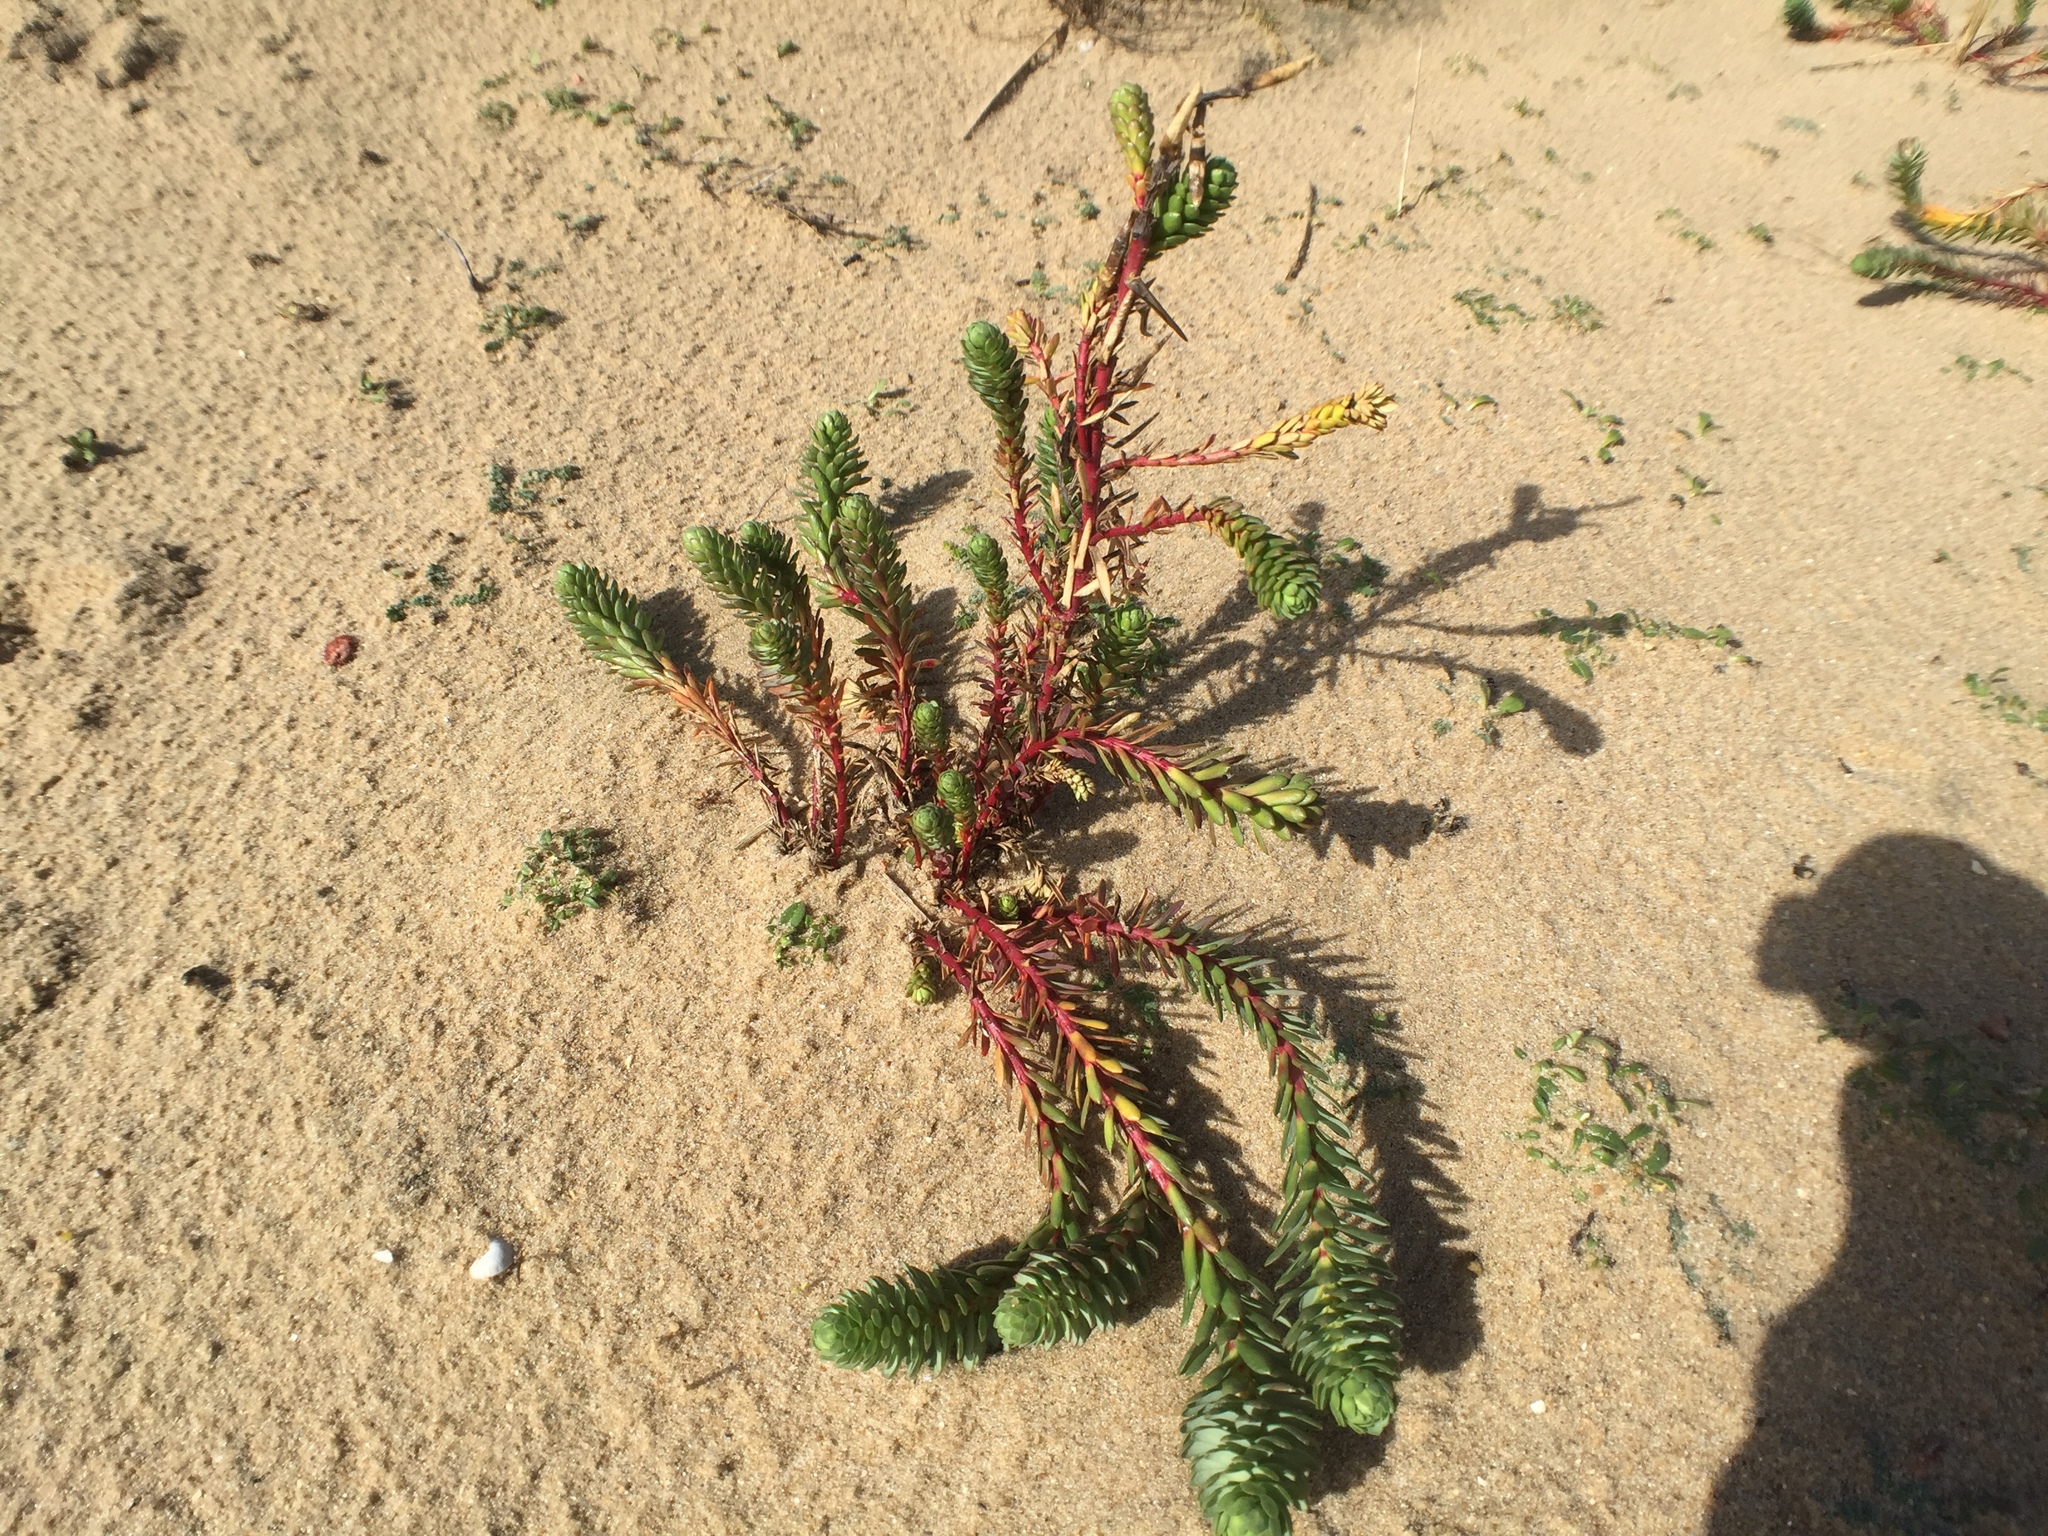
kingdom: Plantae
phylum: Tracheophyta
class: Magnoliopsida
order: Malpighiales
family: Euphorbiaceae
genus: Euphorbia
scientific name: Euphorbia paralias
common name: Sea spurge
